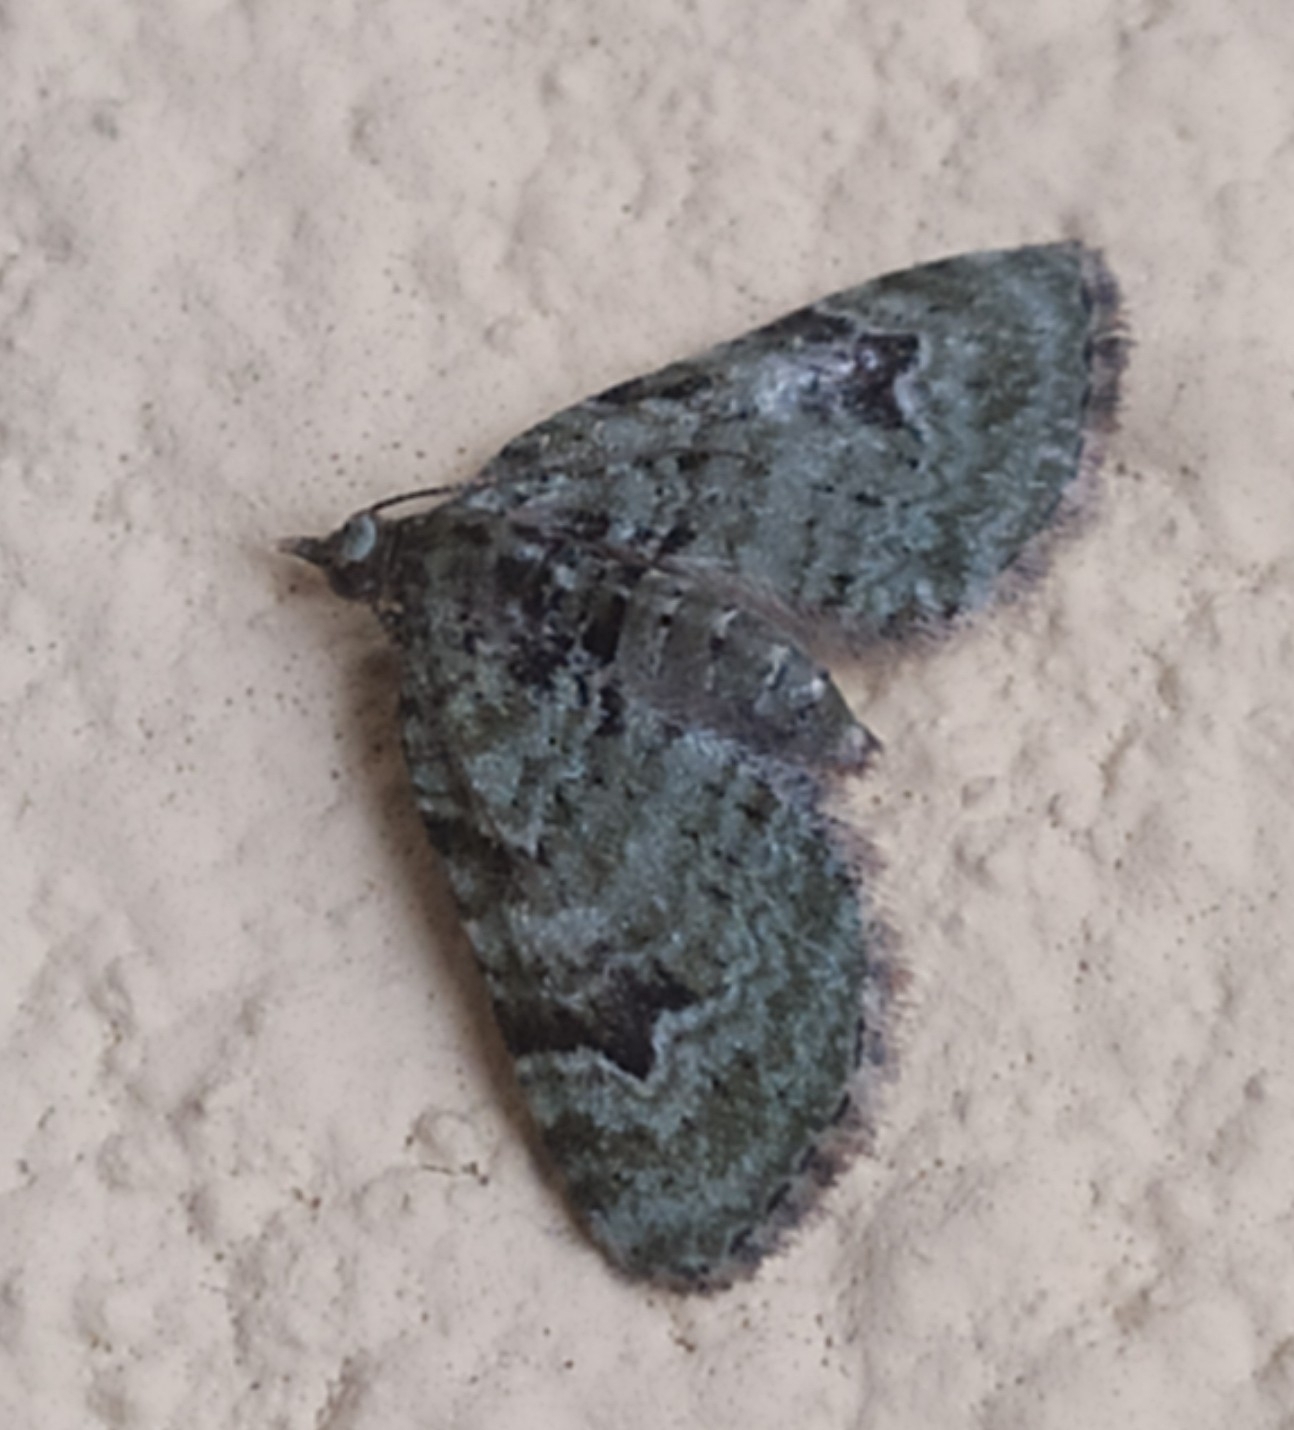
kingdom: Animalia
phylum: Arthropoda
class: Insecta
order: Lepidoptera
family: Geometridae
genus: Chloroclystis
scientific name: Chloroclystis v-ata
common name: V-pug
